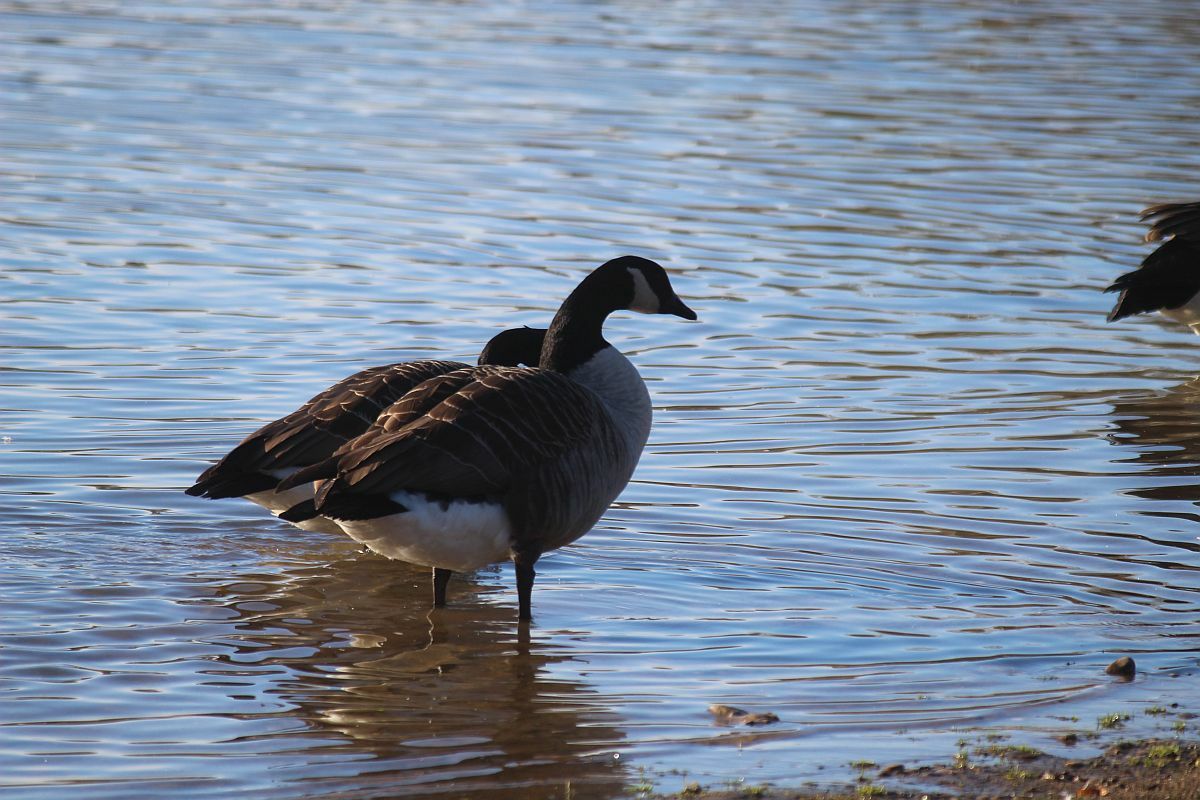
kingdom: Animalia
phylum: Chordata
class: Aves
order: Anseriformes
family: Anatidae
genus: Branta
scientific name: Branta canadensis
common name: Canada goose
